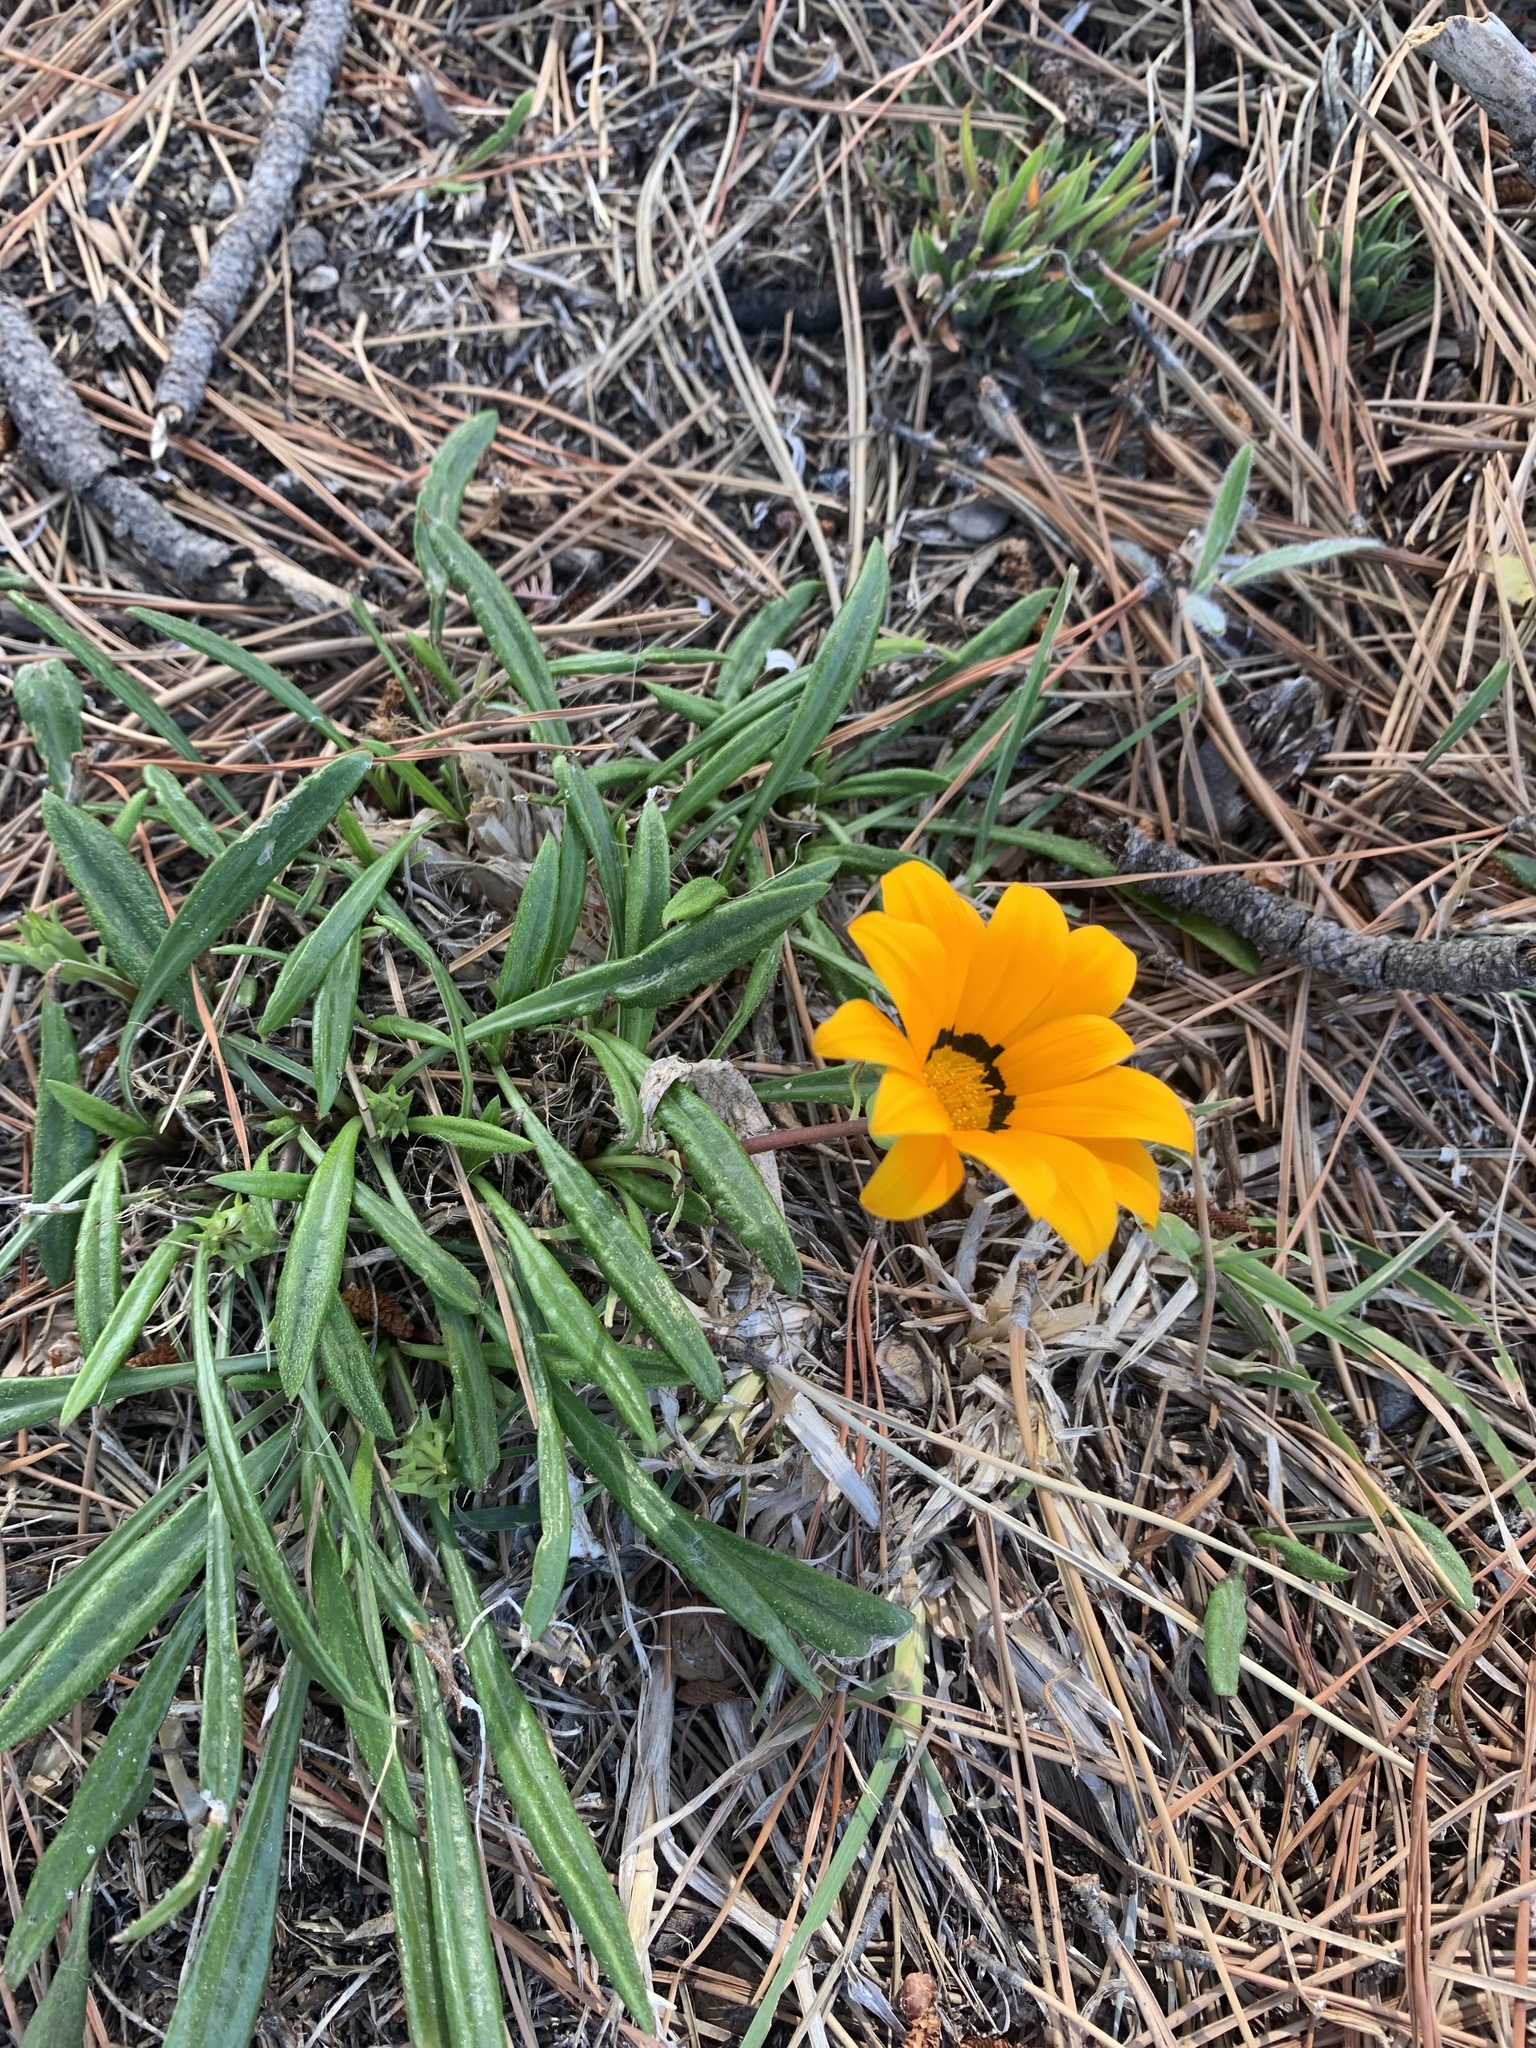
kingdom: Plantae
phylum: Tracheophyta
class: Magnoliopsida
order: Asterales
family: Asteraceae
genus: Gazania
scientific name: Gazania splendens
